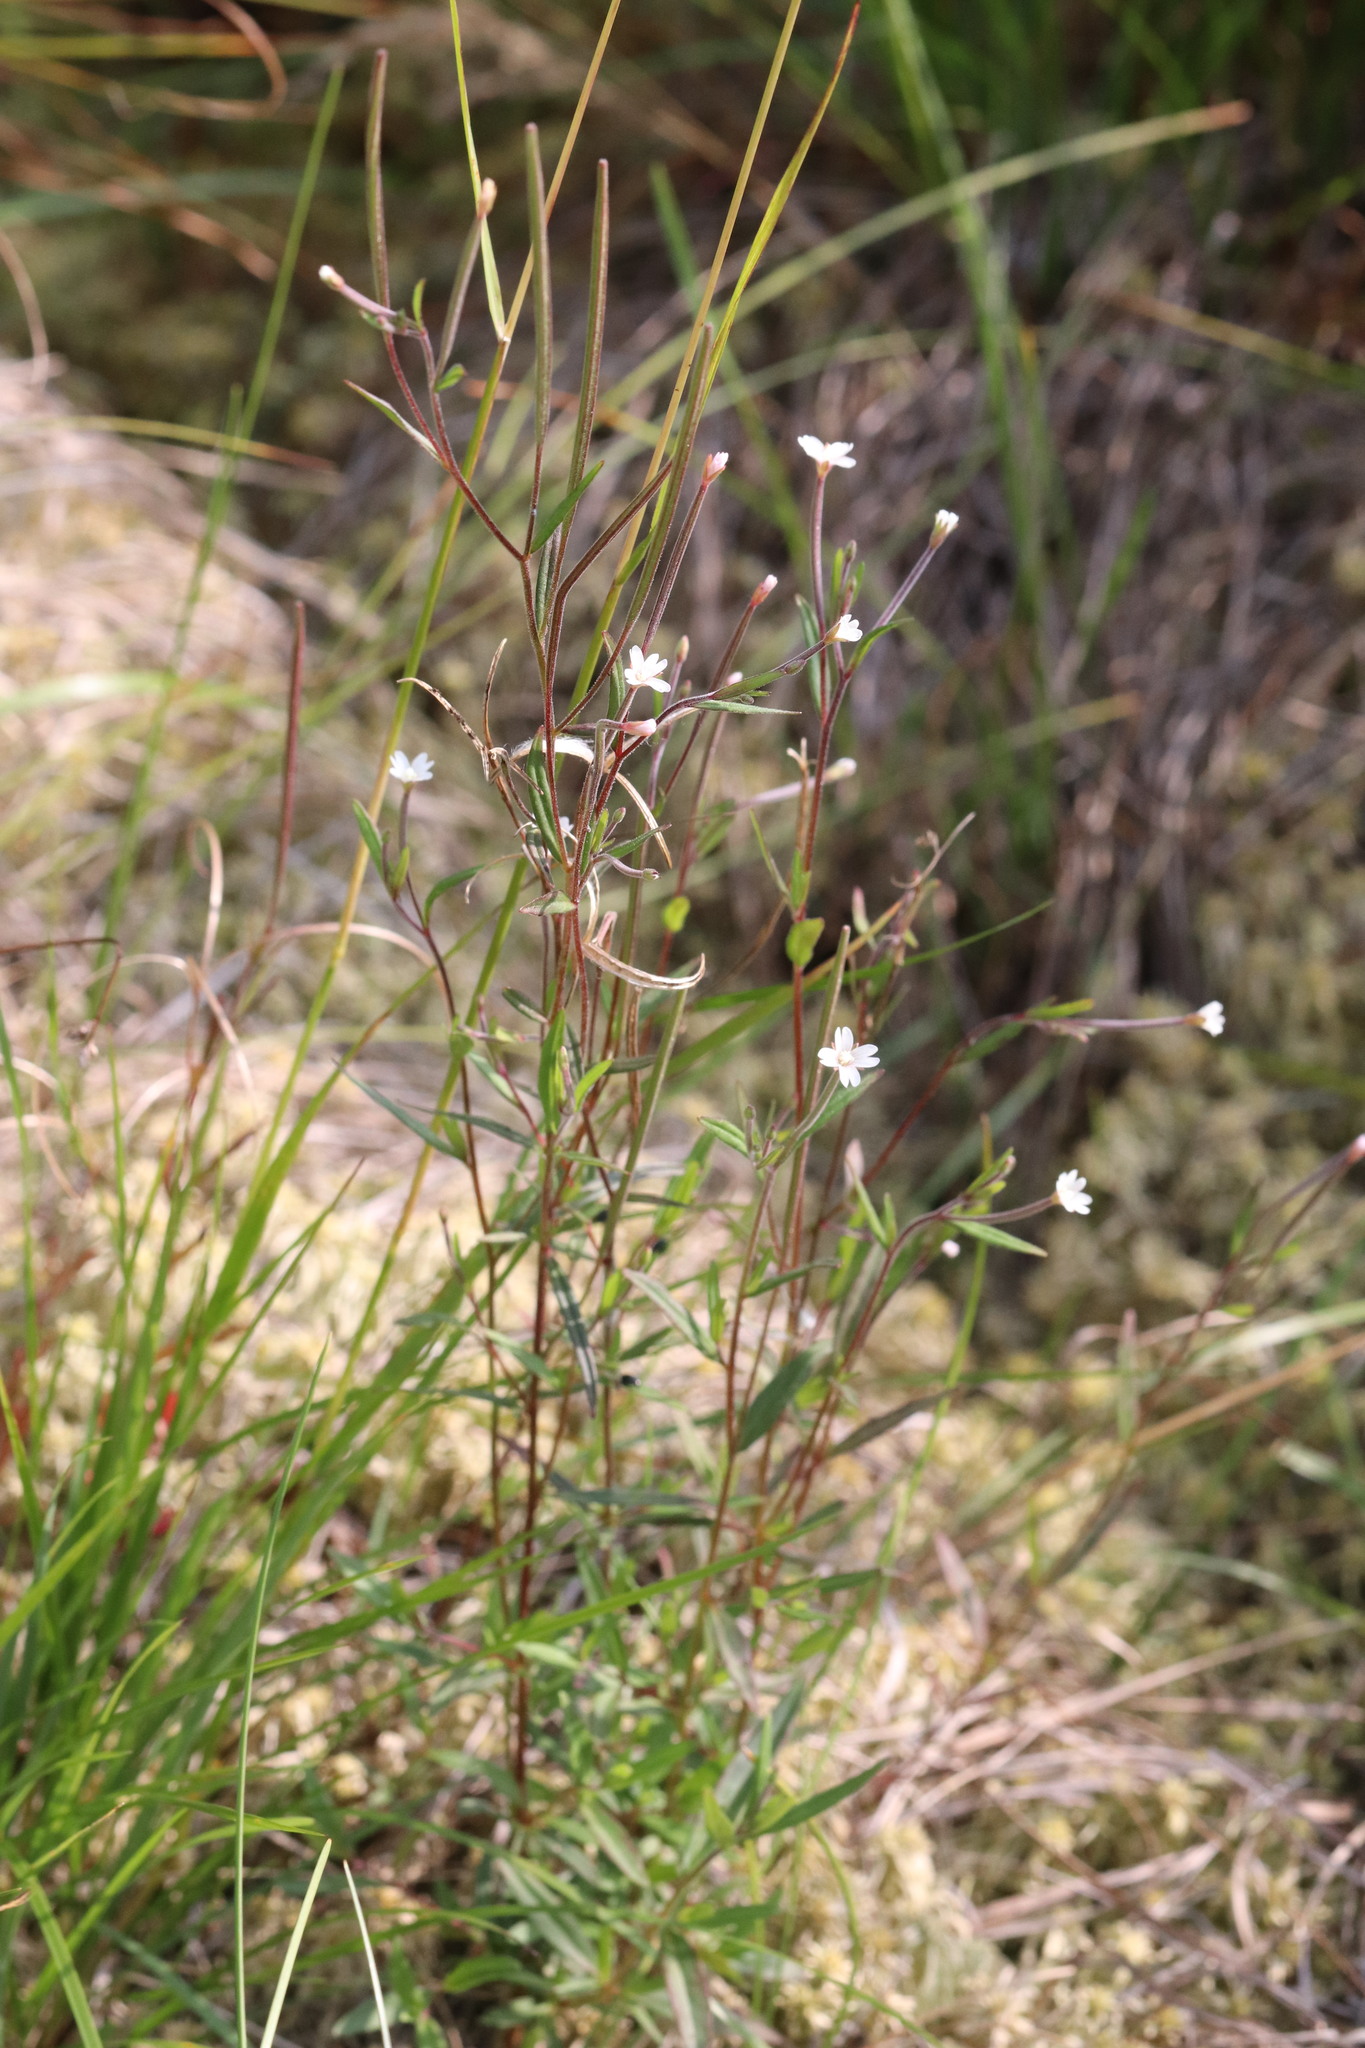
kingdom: Plantae
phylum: Tracheophyta
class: Magnoliopsida
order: Myrtales
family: Onagraceae
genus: Epilobium
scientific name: Epilobium palustre
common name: Marsh willowherb
